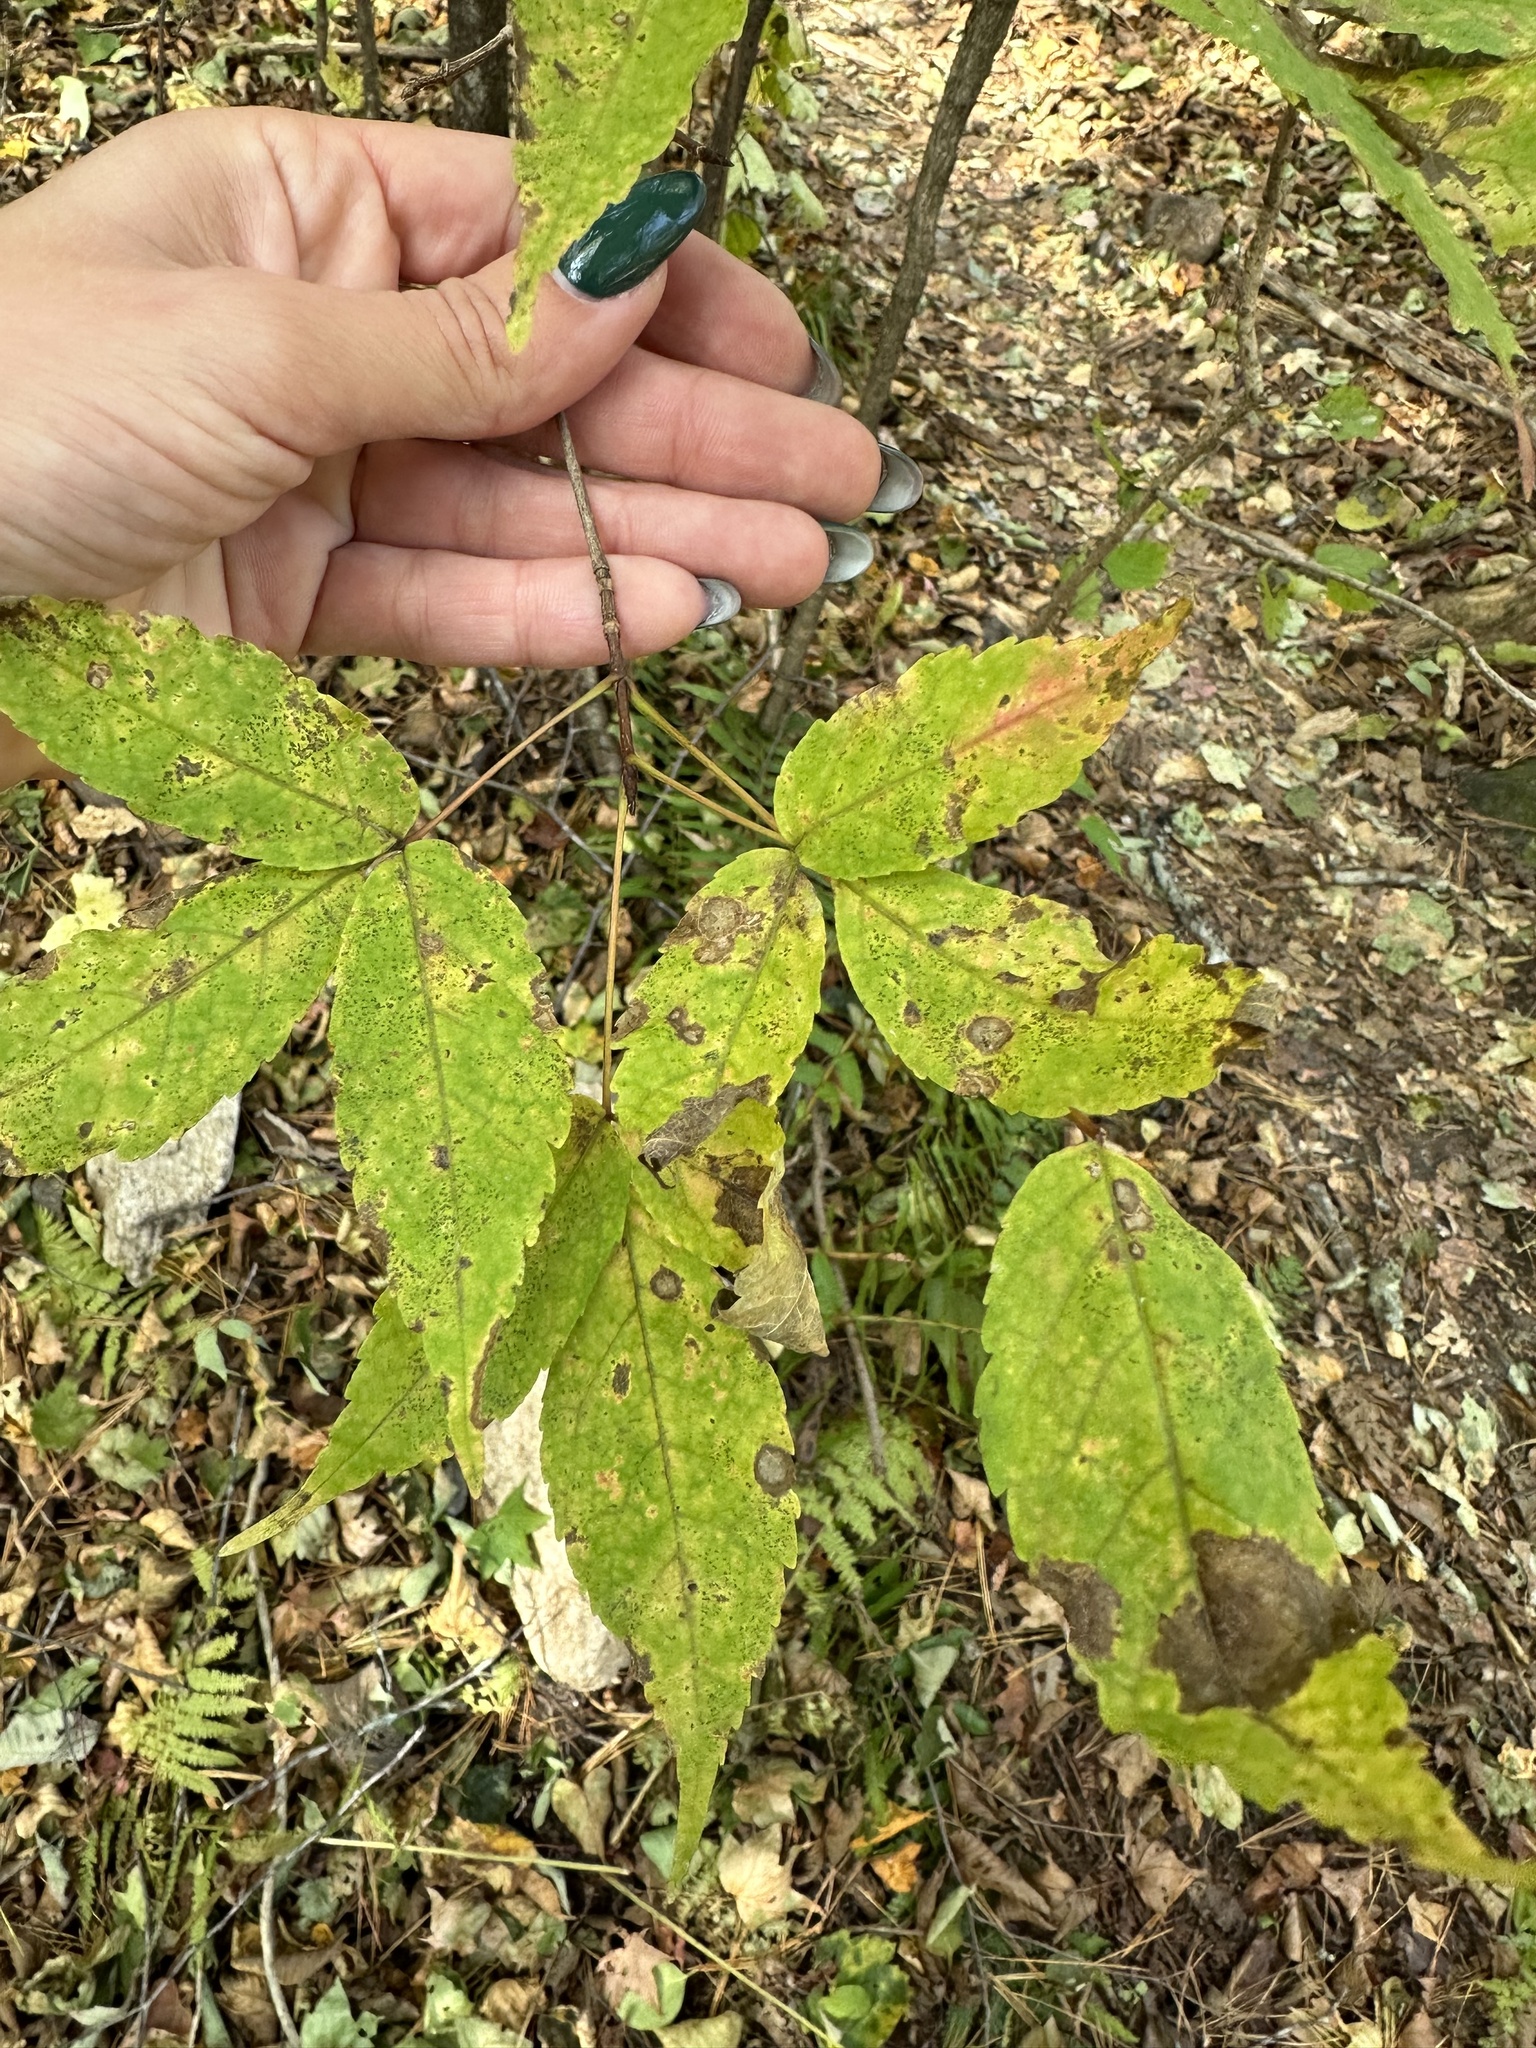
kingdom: Plantae
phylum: Tracheophyta
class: Magnoliopsida
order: Sapindales
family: Sapindaceae
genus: Acer
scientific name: Acer mandshuricum
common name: Manchurian maple
